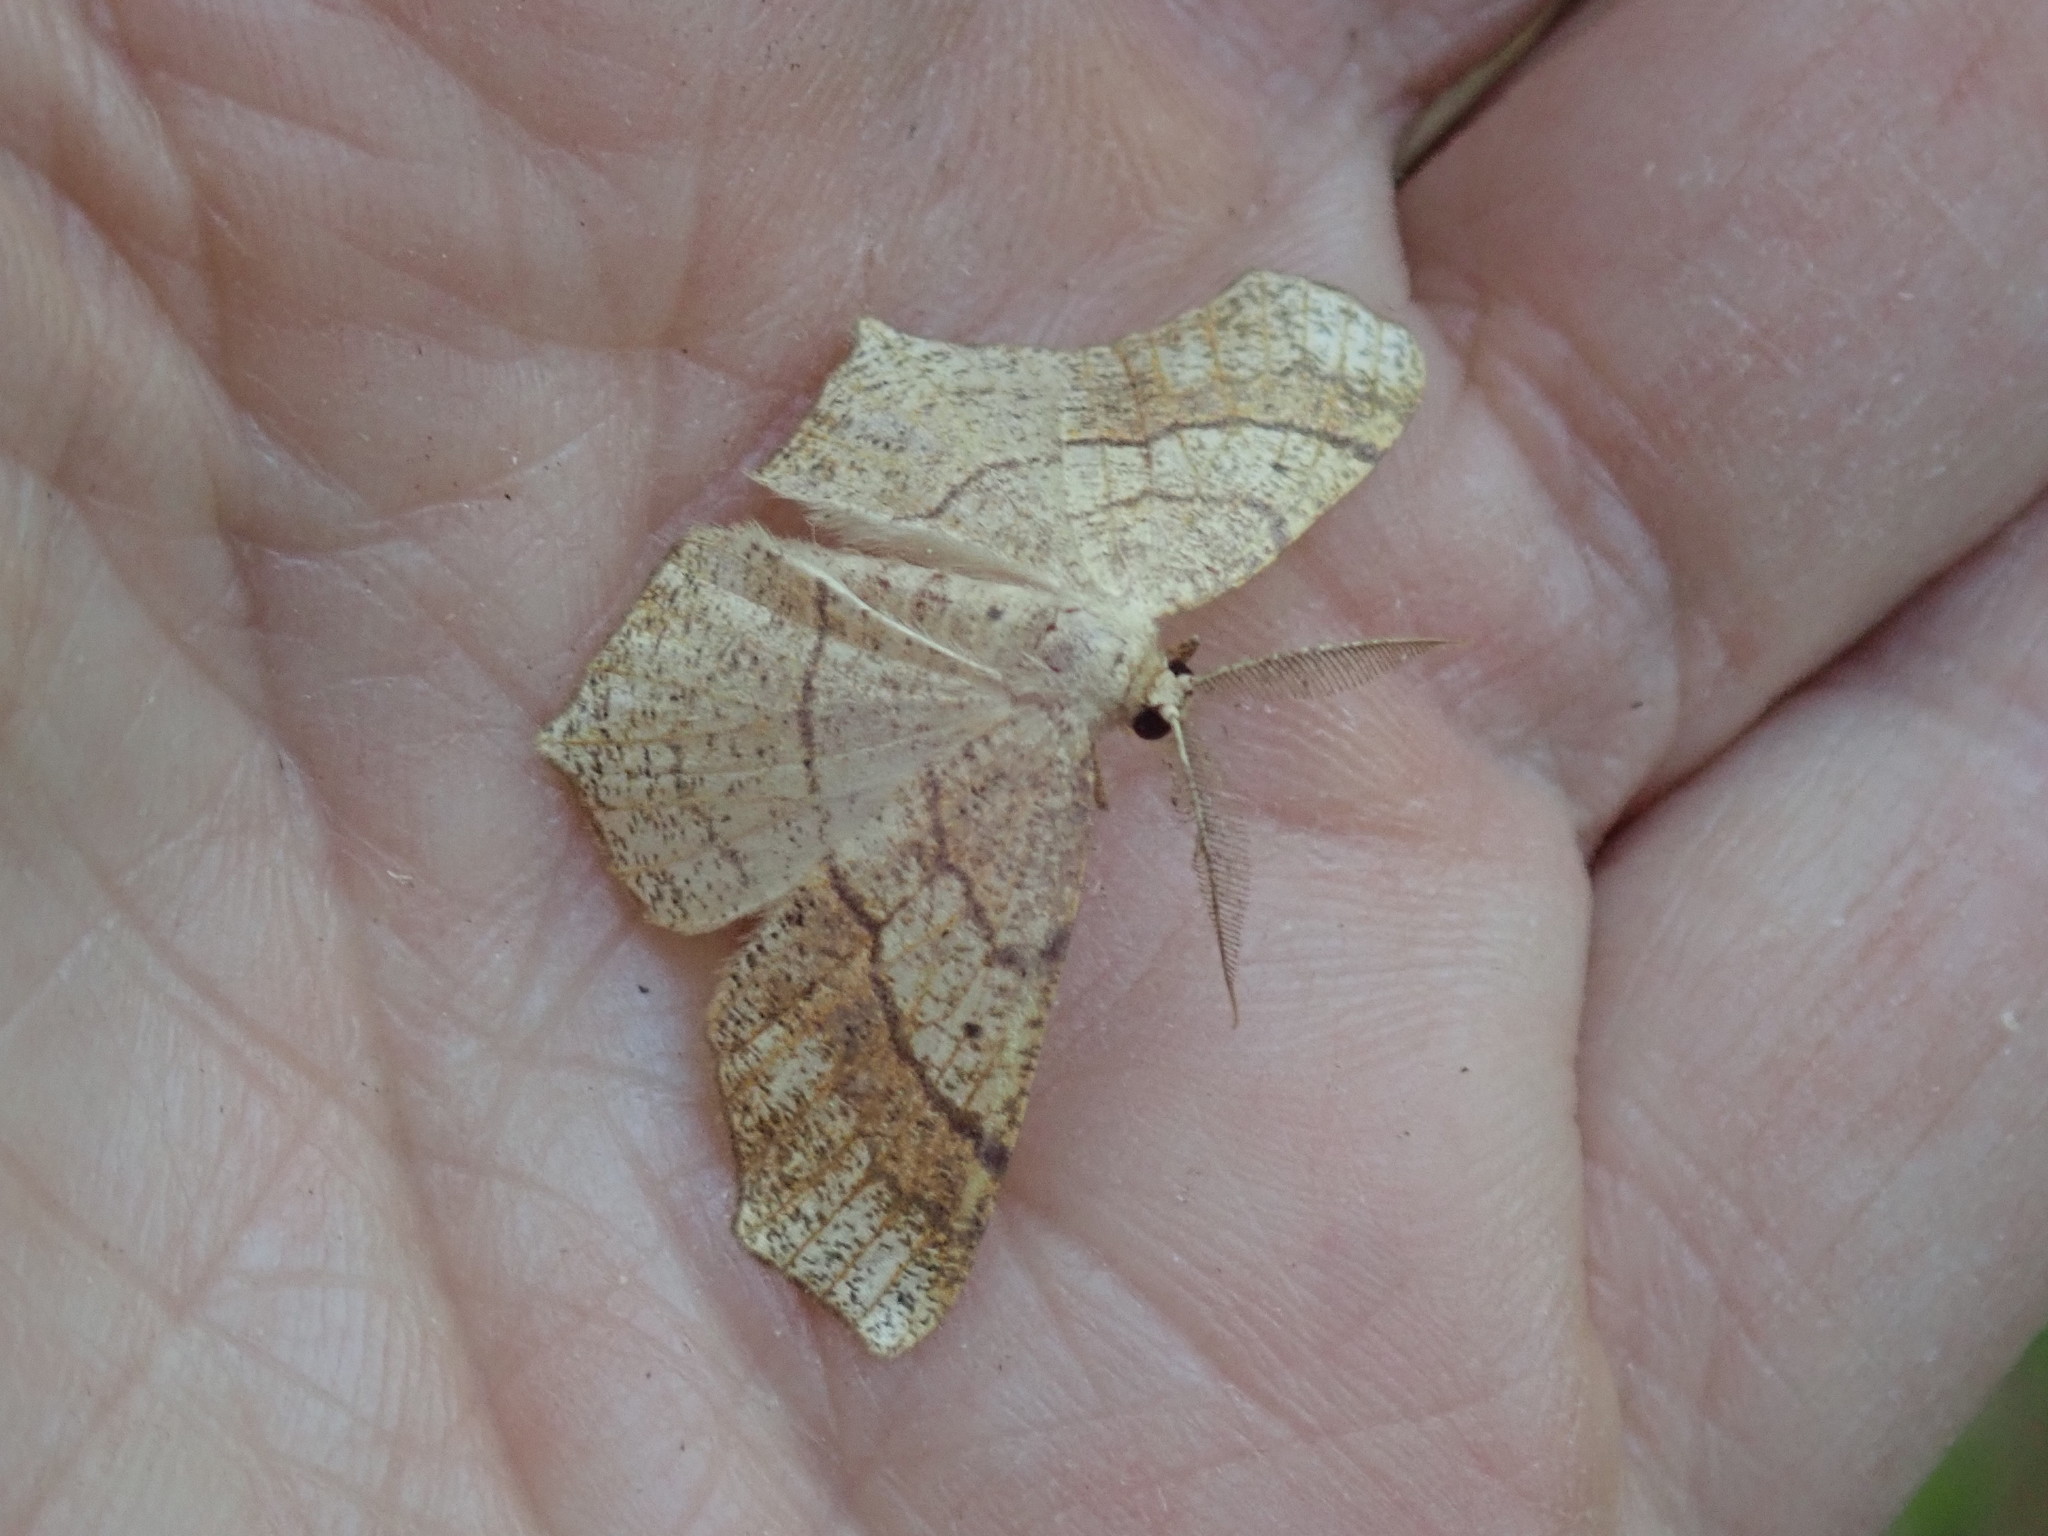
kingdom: Animalia
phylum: Arthropoda
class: Insecta
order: Lepidoptera
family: Geometridae
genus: Besma
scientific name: Besma quercivoraria
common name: Oak besma
